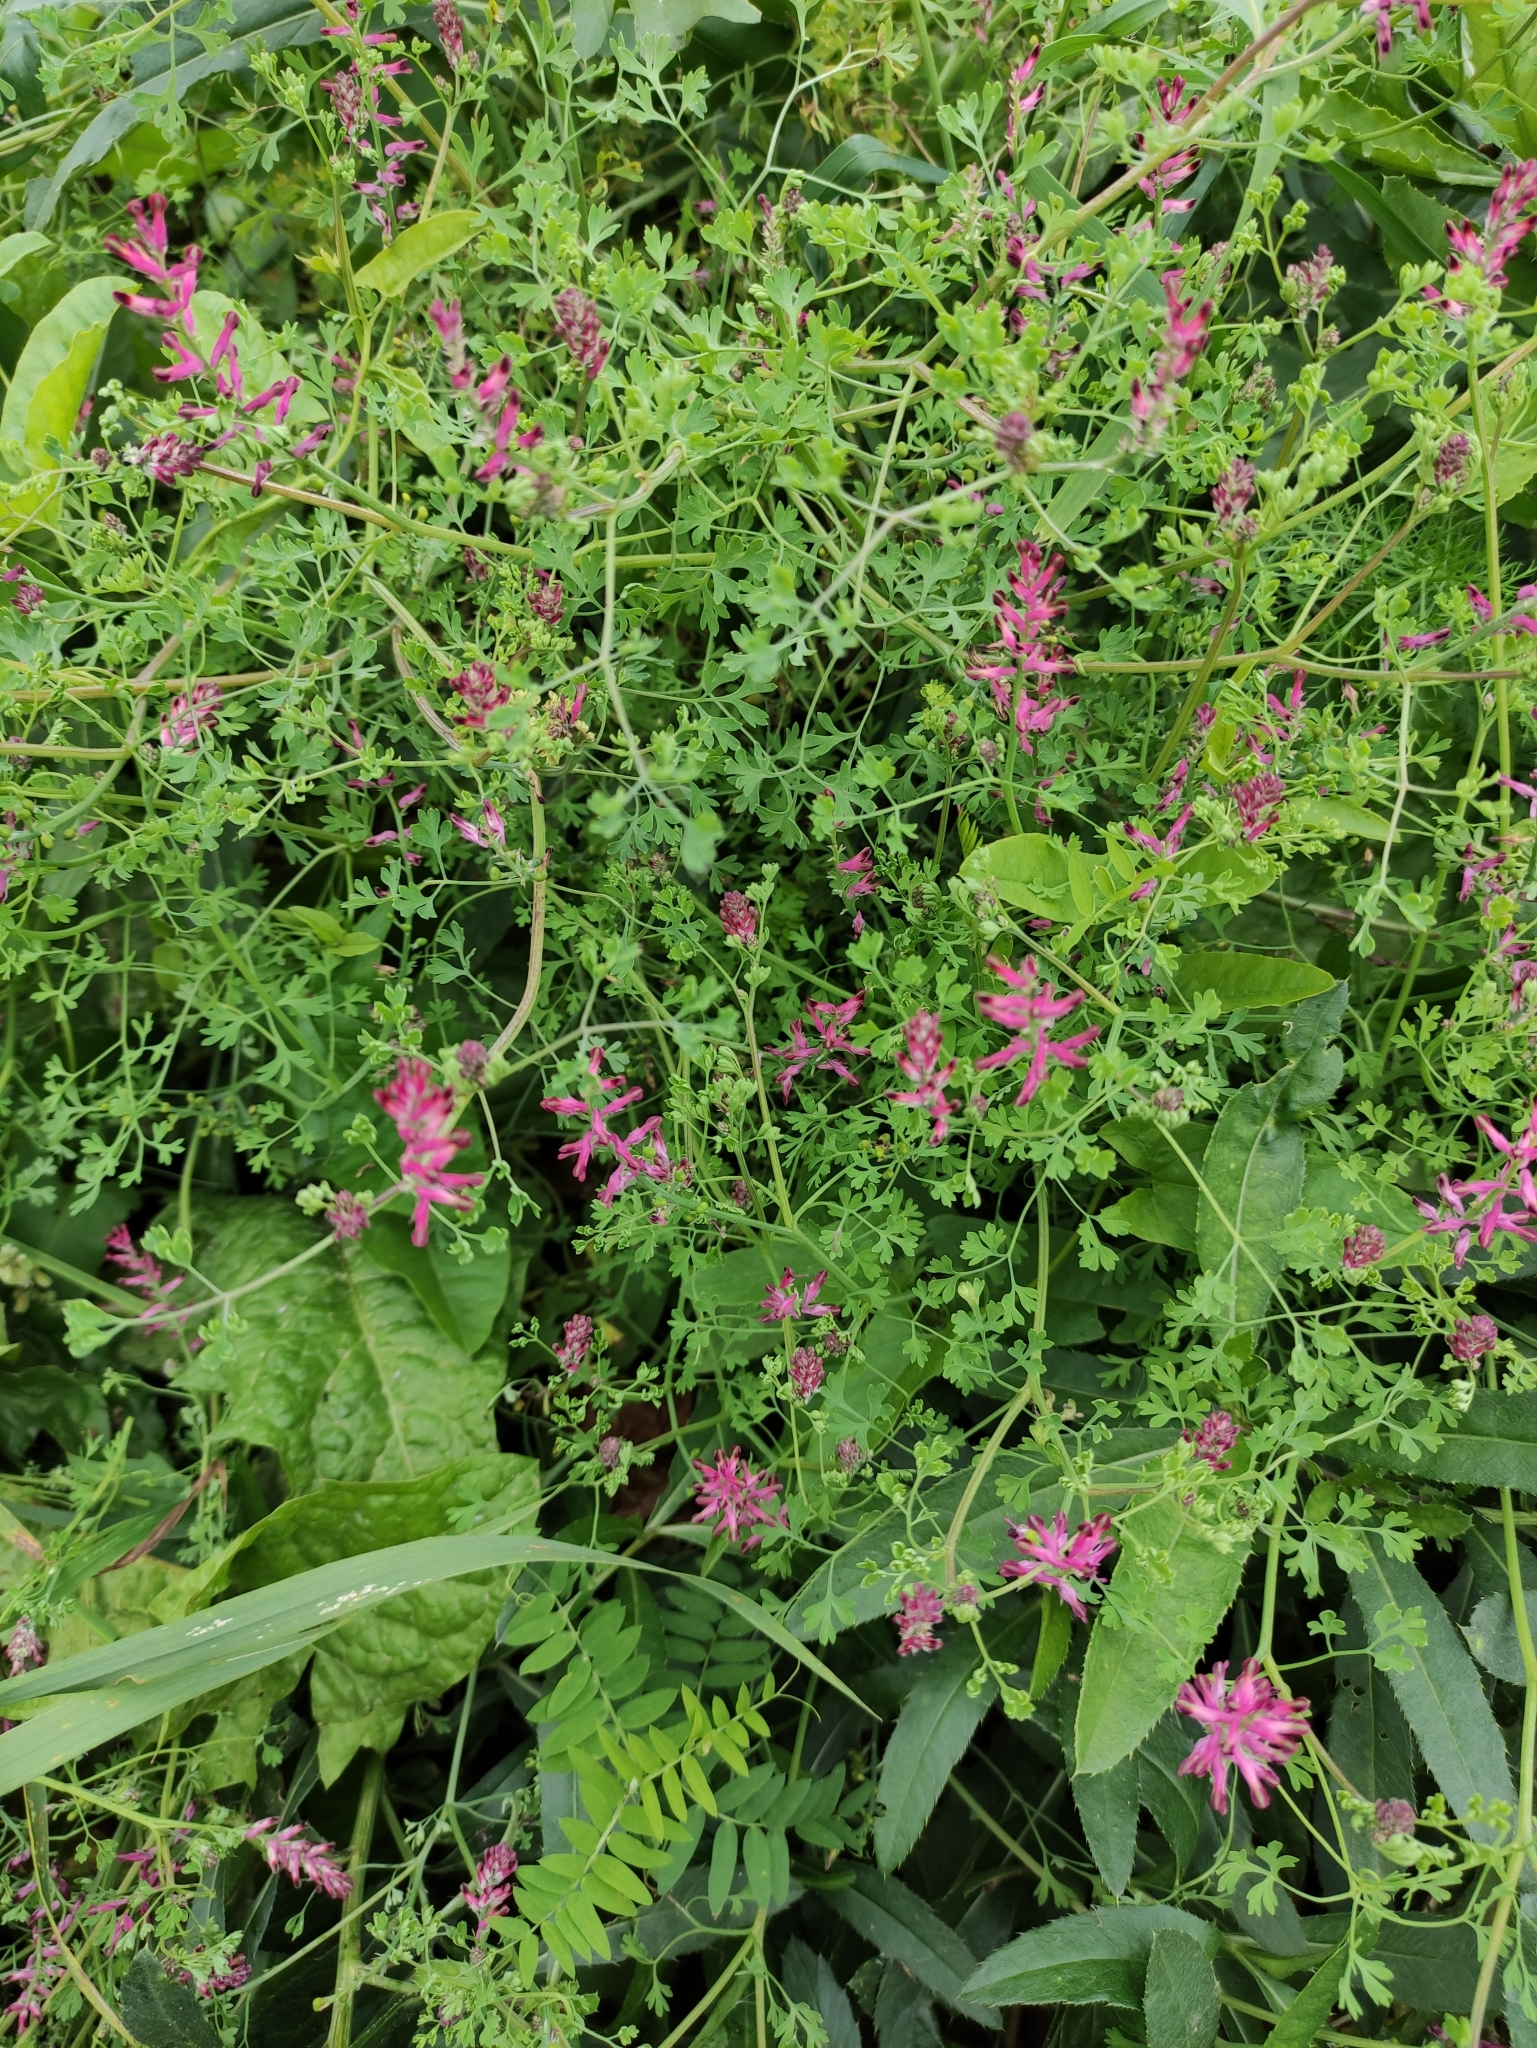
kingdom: Plantae
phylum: Tracheophyta
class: Magnoliopsida
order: Ranunculales
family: Papaveraceae
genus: Fumaria
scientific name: Fumaria officinalis
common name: Common fumitory
